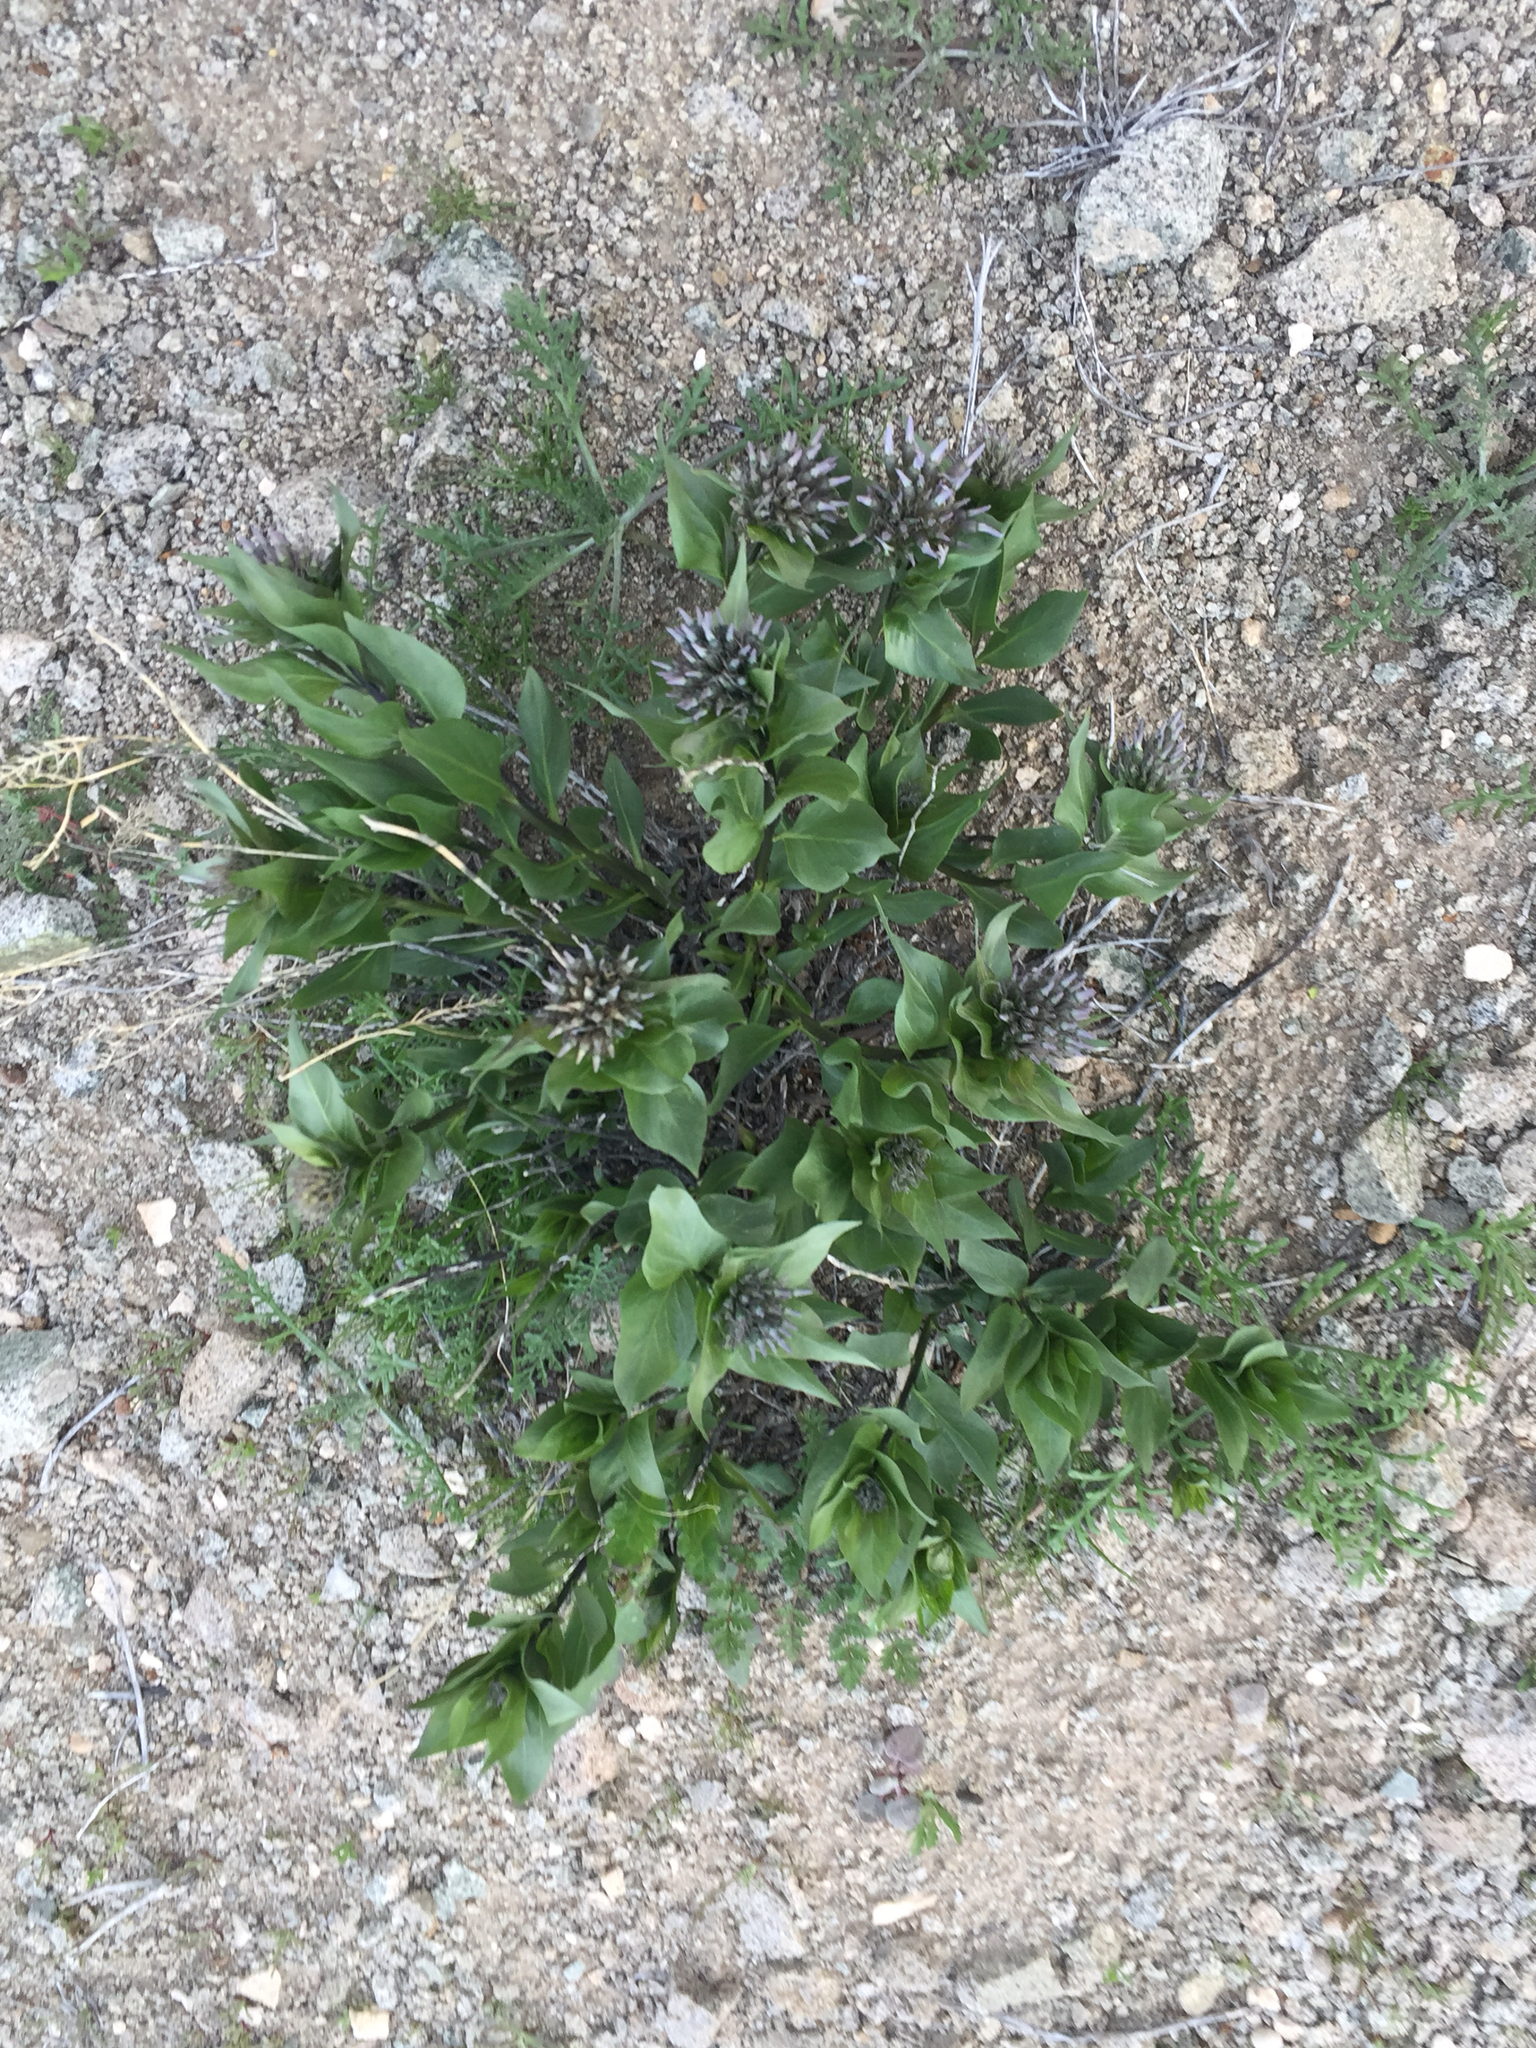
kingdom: Plantae
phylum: Tracheophyta
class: Magnoliopsida
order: Gentianales
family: Apocynaceae
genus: Amsonia
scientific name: Amsonia tomentosa
